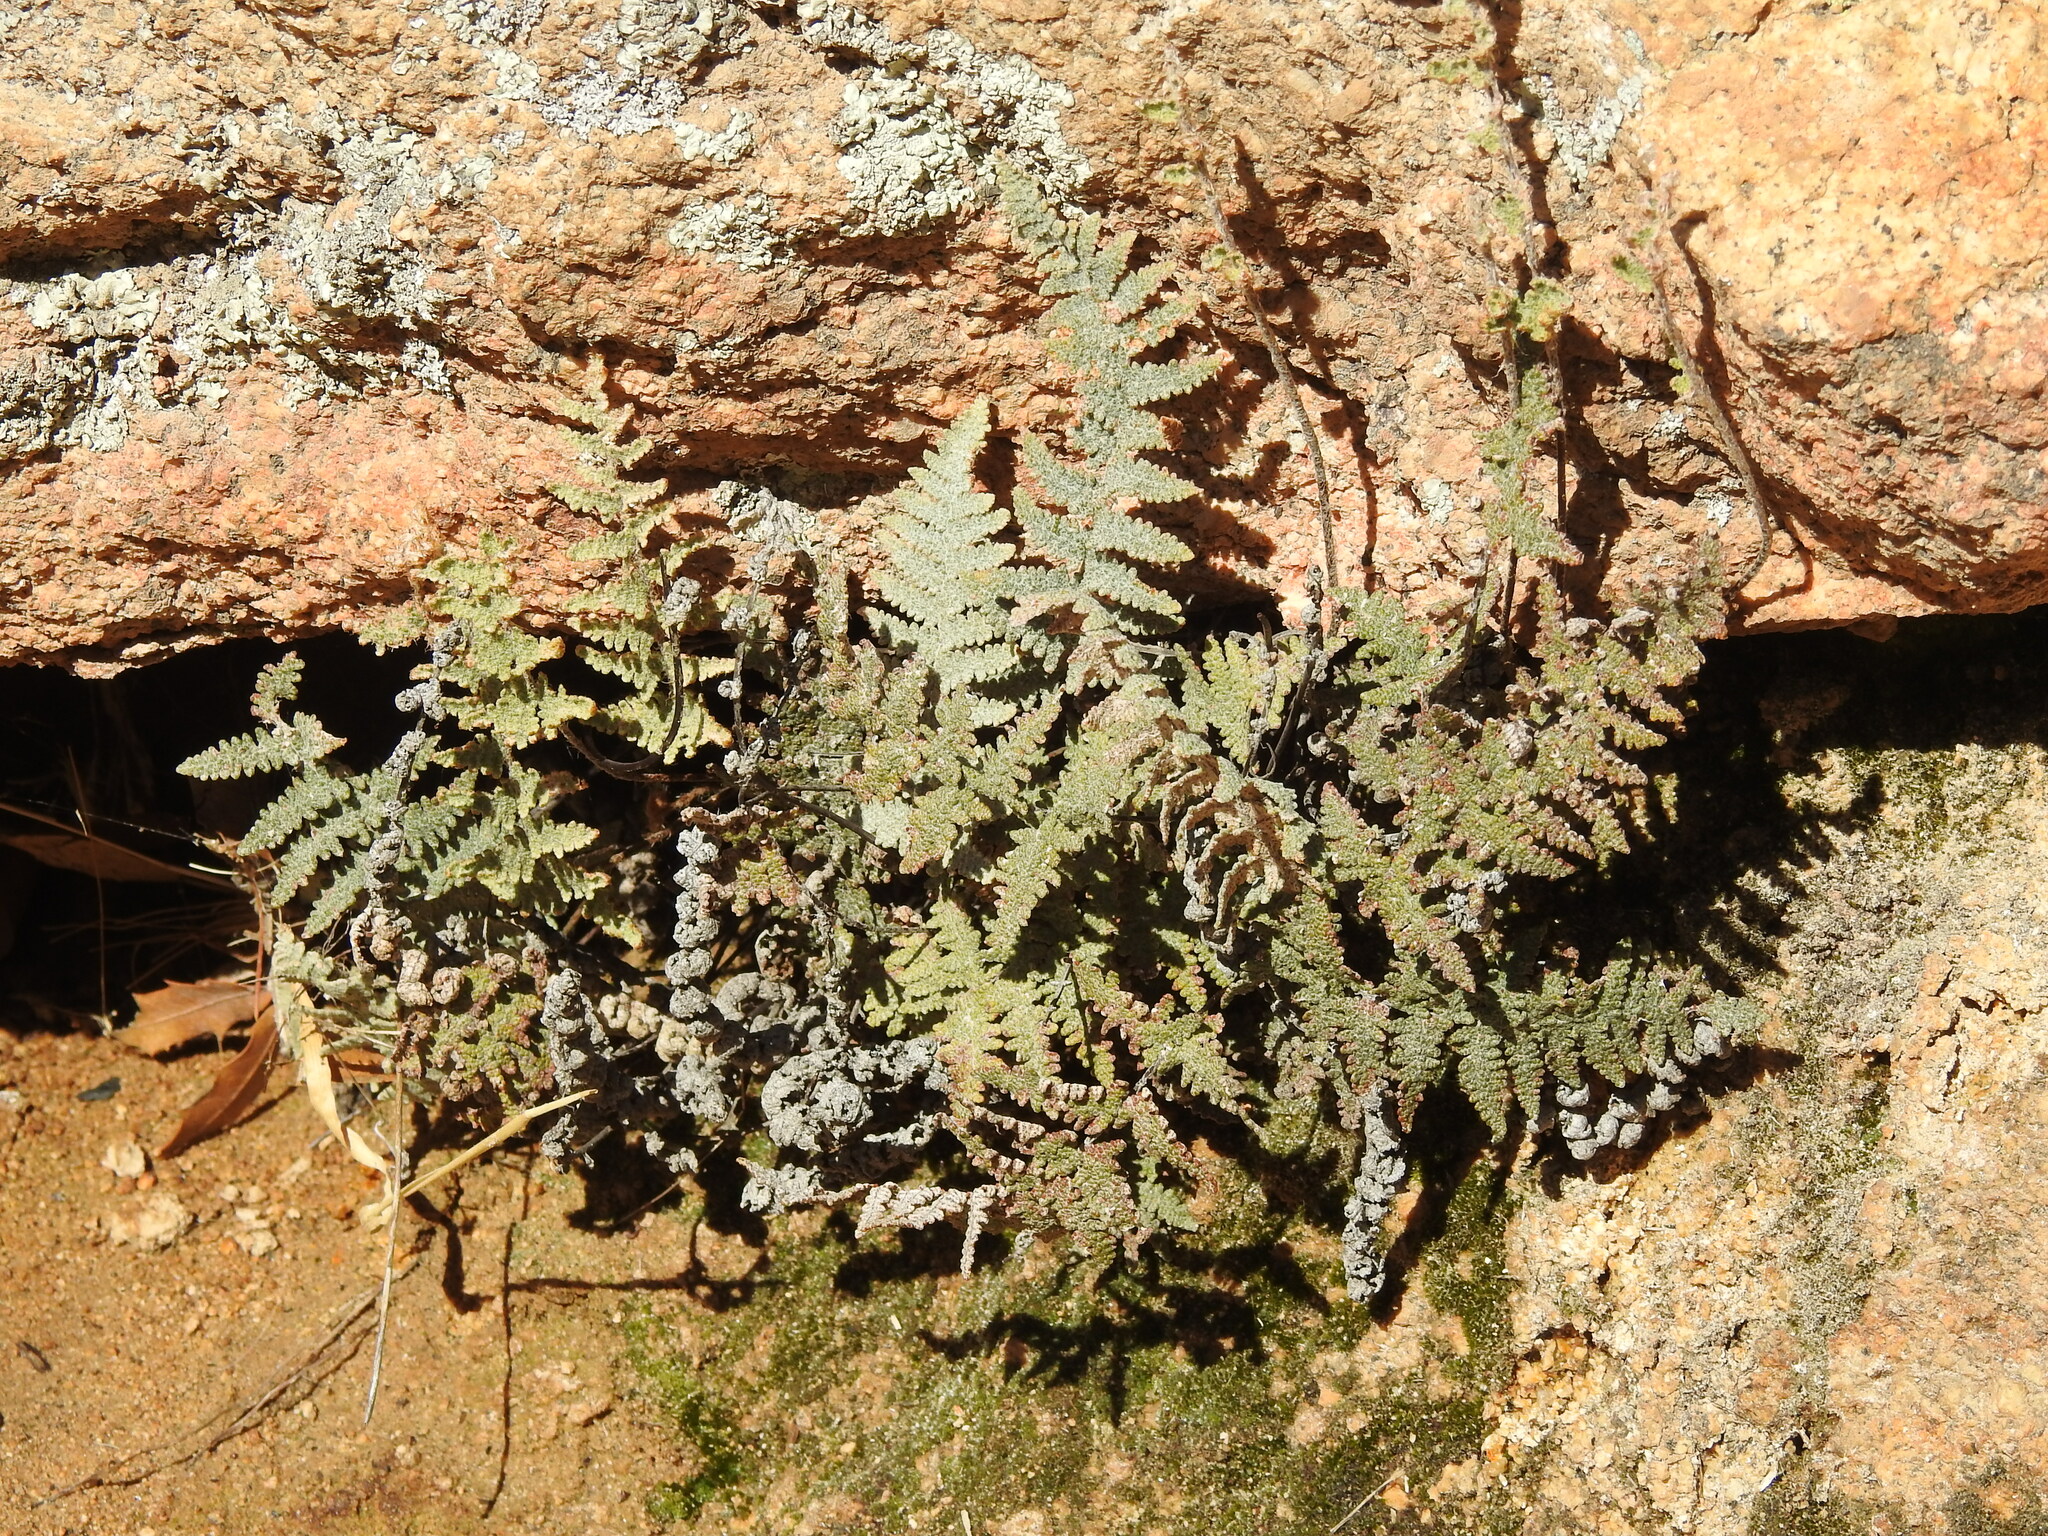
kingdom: Plantae
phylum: Tracheophyta
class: Polypodiopsida
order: Polypodiales
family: Pteridaceae
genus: Myriopteris
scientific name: Myriopteris lindheimeri
